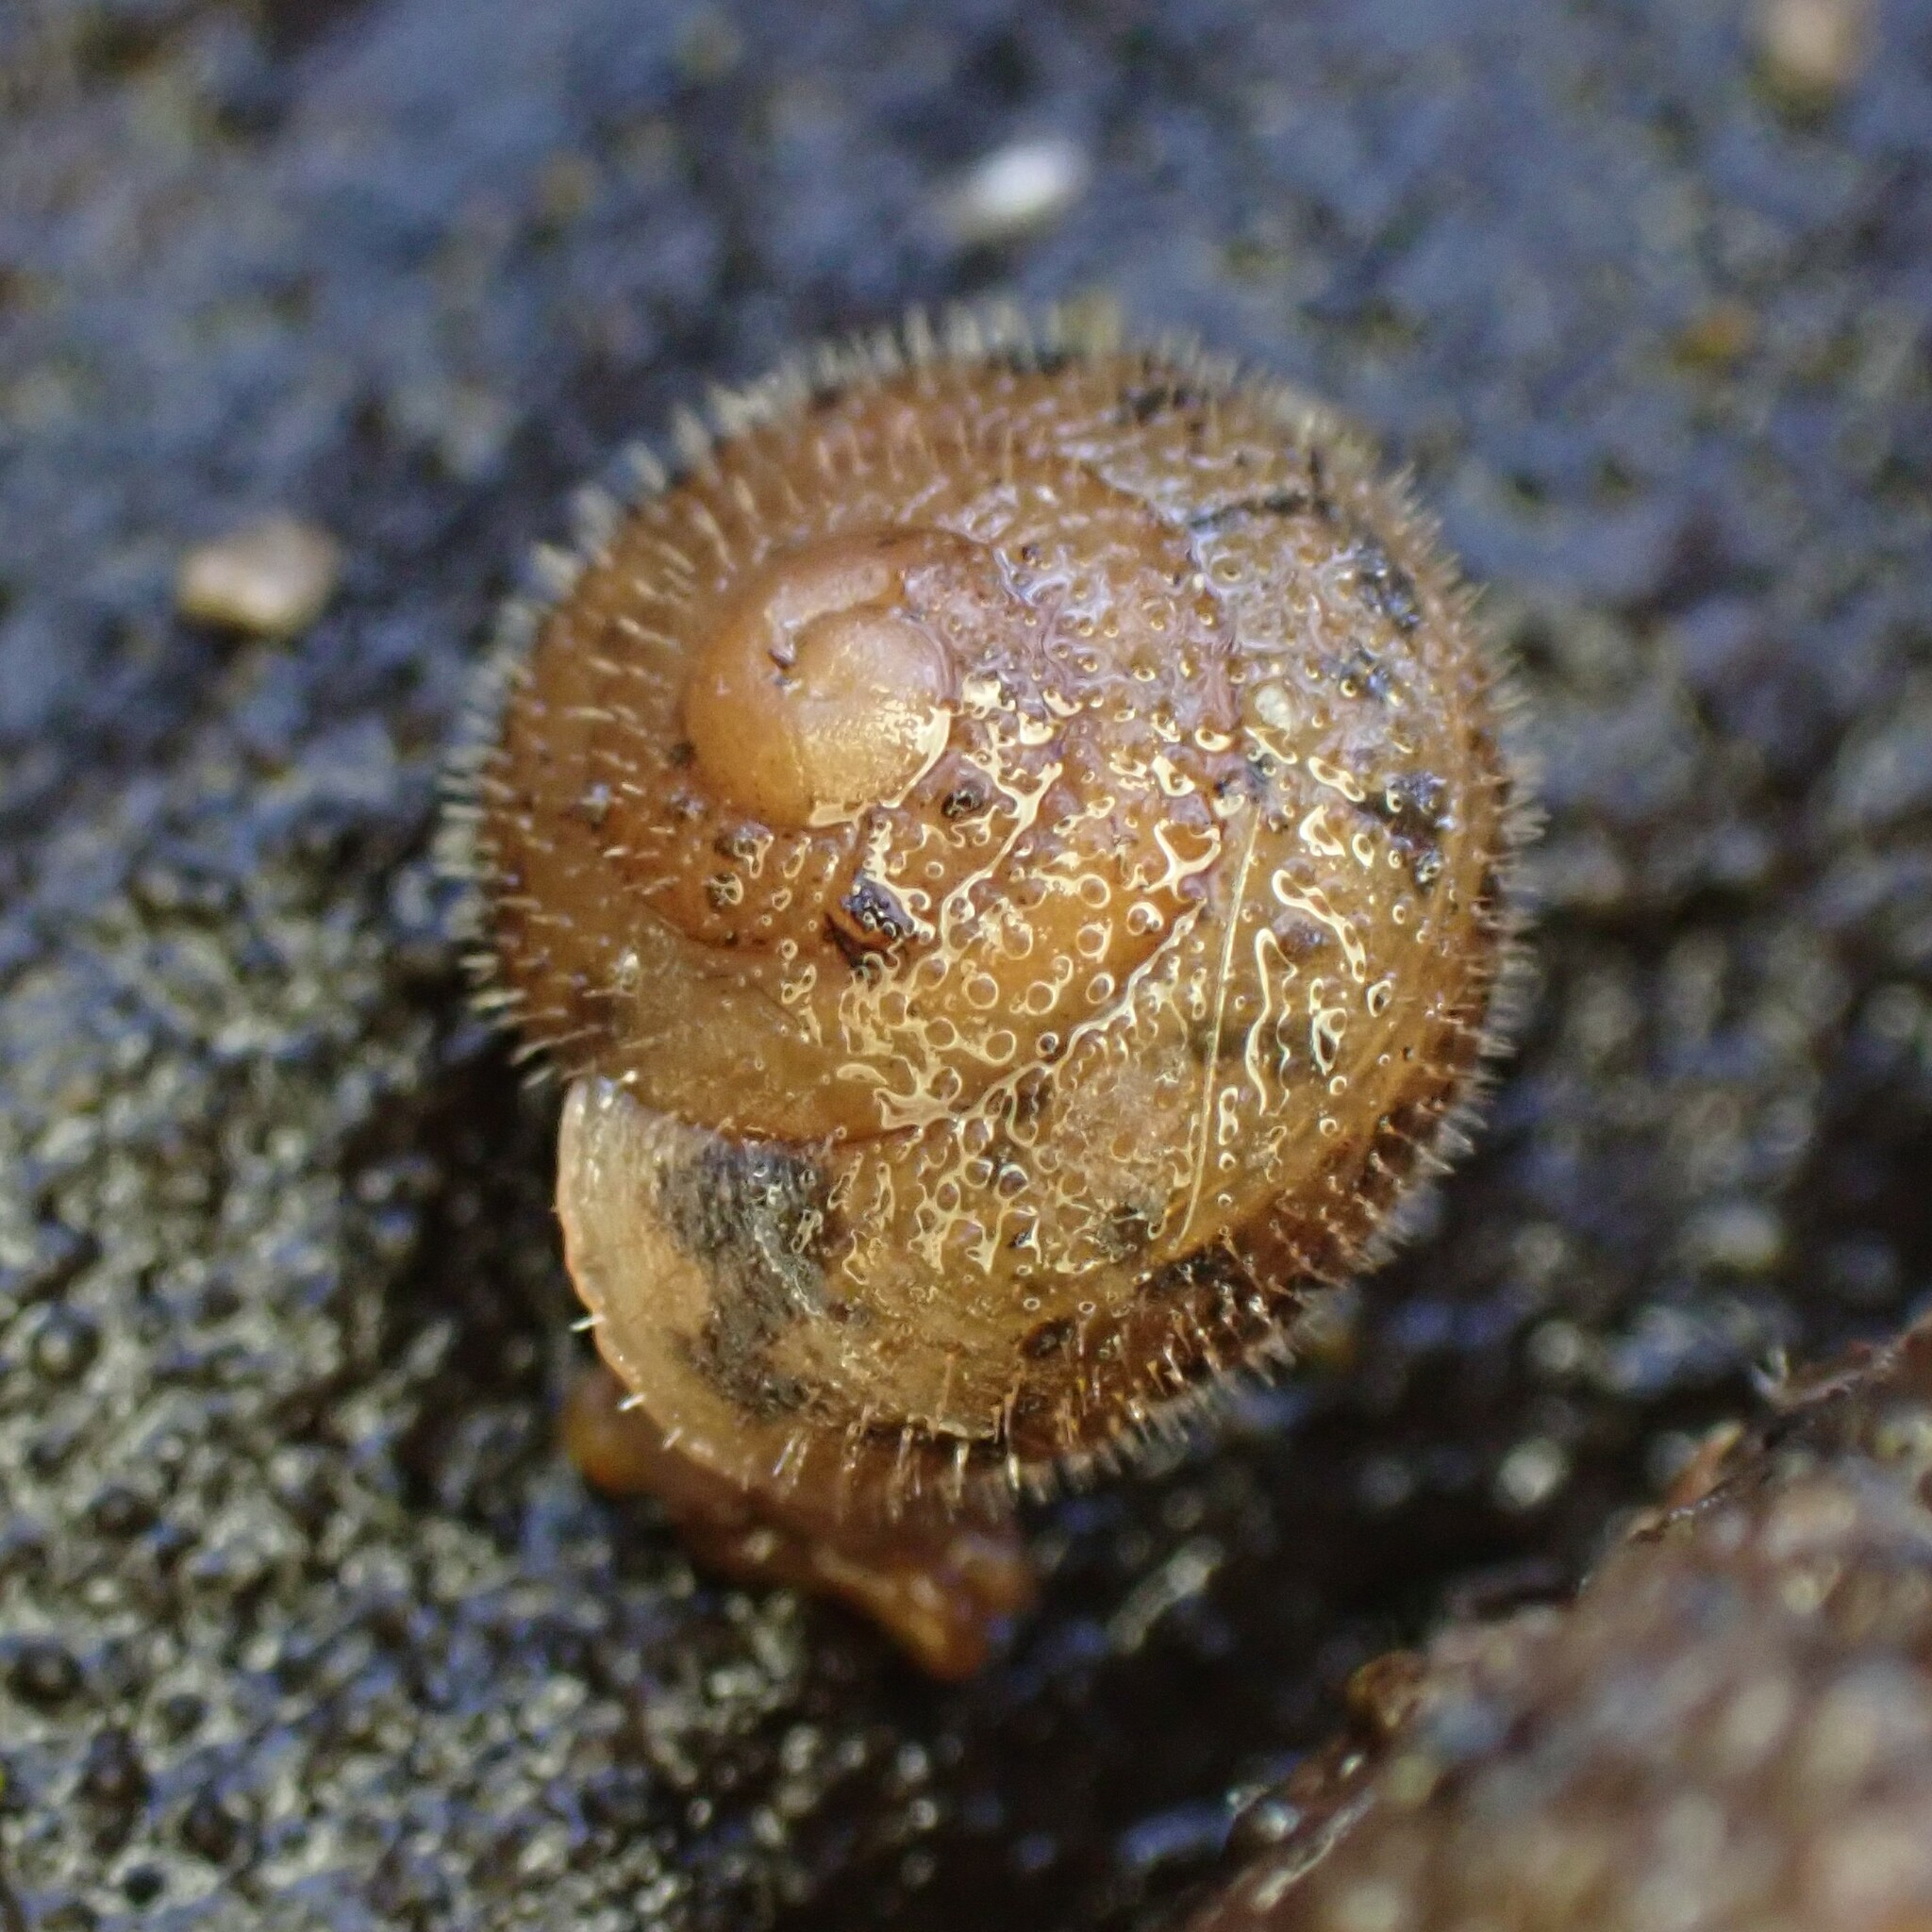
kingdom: Animalia
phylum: Mollusca
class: Gastropoda
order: Stylommatophora
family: Polygyridae
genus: Vespericola
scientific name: Vespericola columbianus
